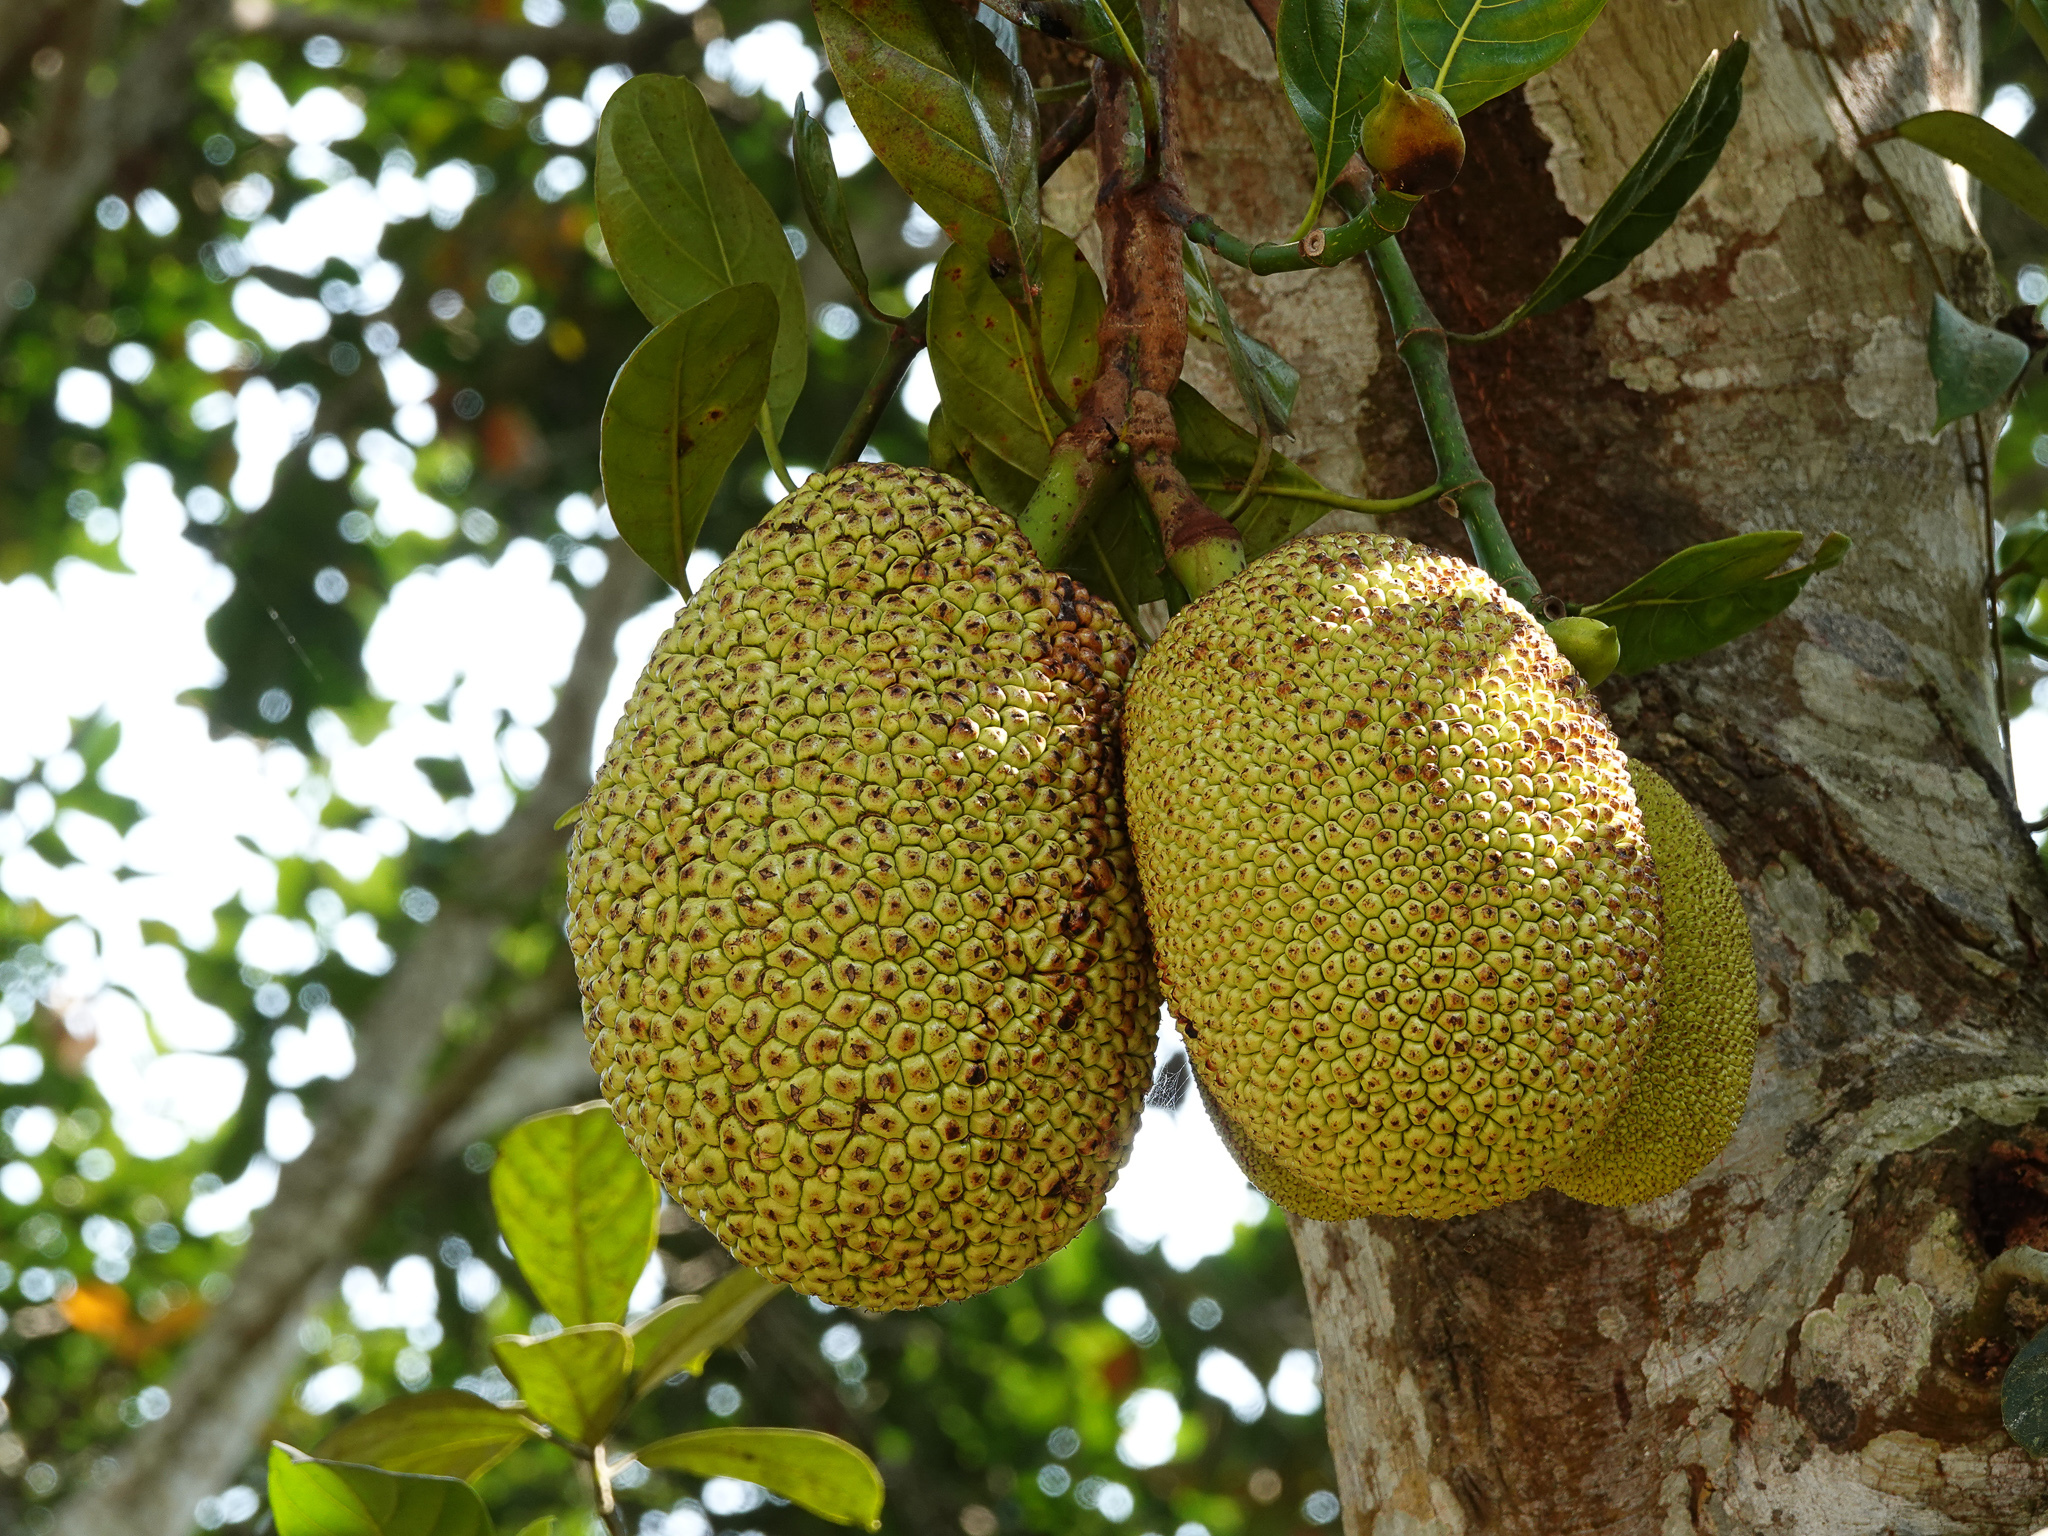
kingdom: Plantae
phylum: Tracheophyta
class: Magnoliopsida
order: Rosales
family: Moraceae
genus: Artocarpus
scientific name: Artocarpus heterophyllus
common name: Jackfruit
